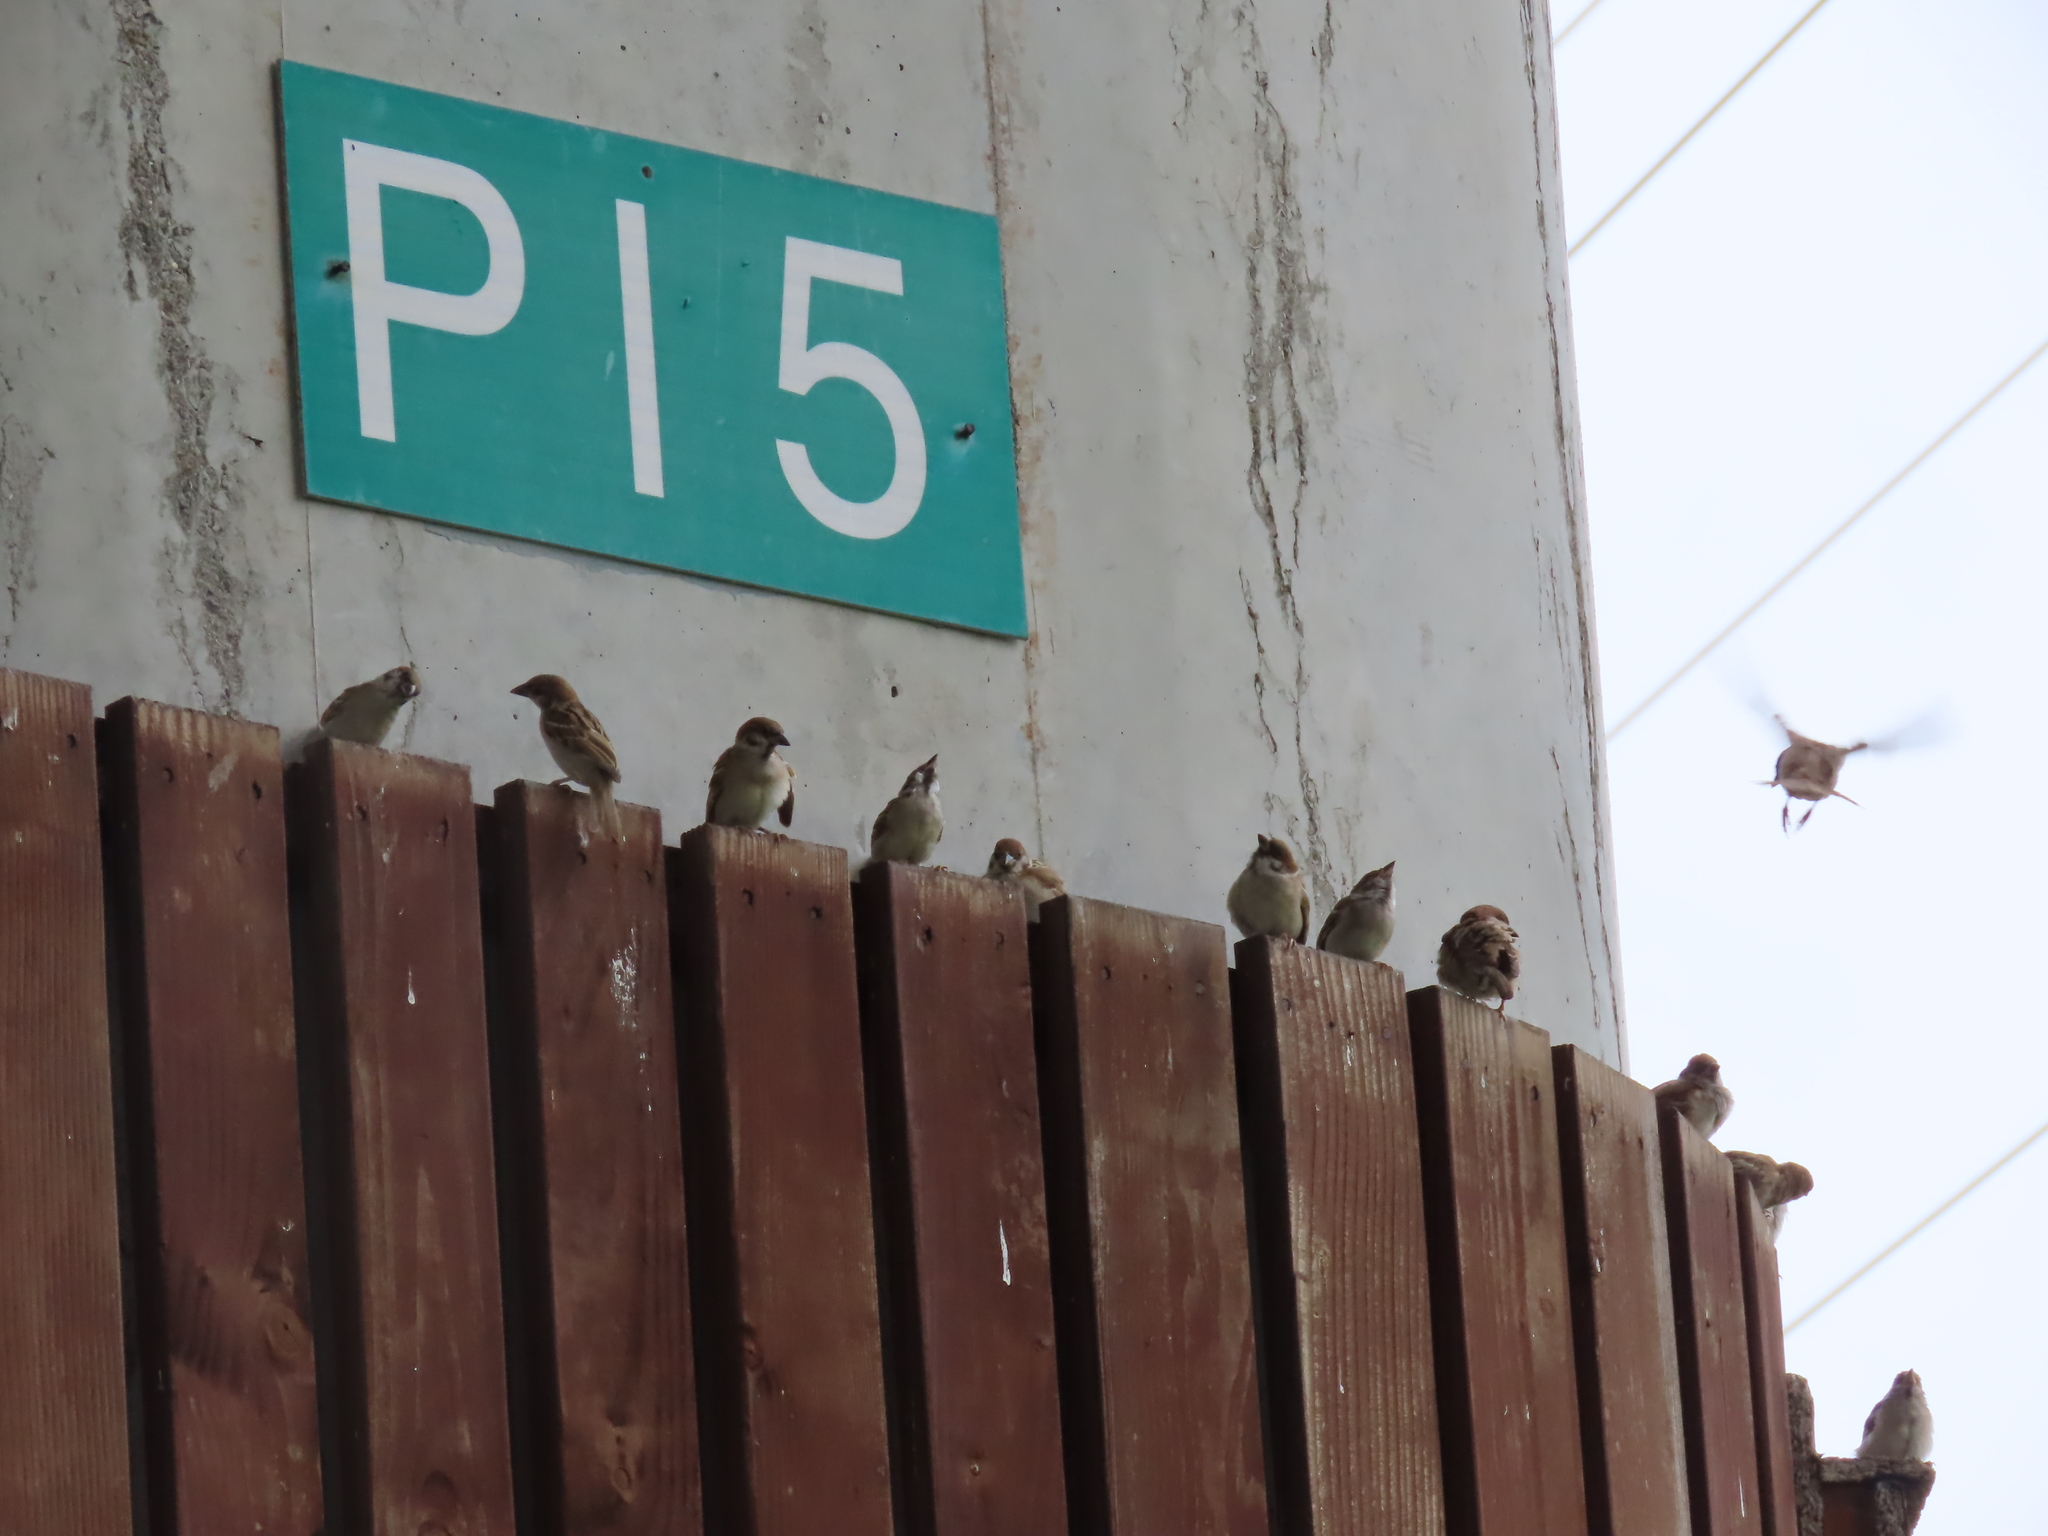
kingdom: Animalia
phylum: Chordata
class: Aves
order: Passeriformes
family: Passeridae
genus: Passer
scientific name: Passer montanus
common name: Eurasian tree sparrow
